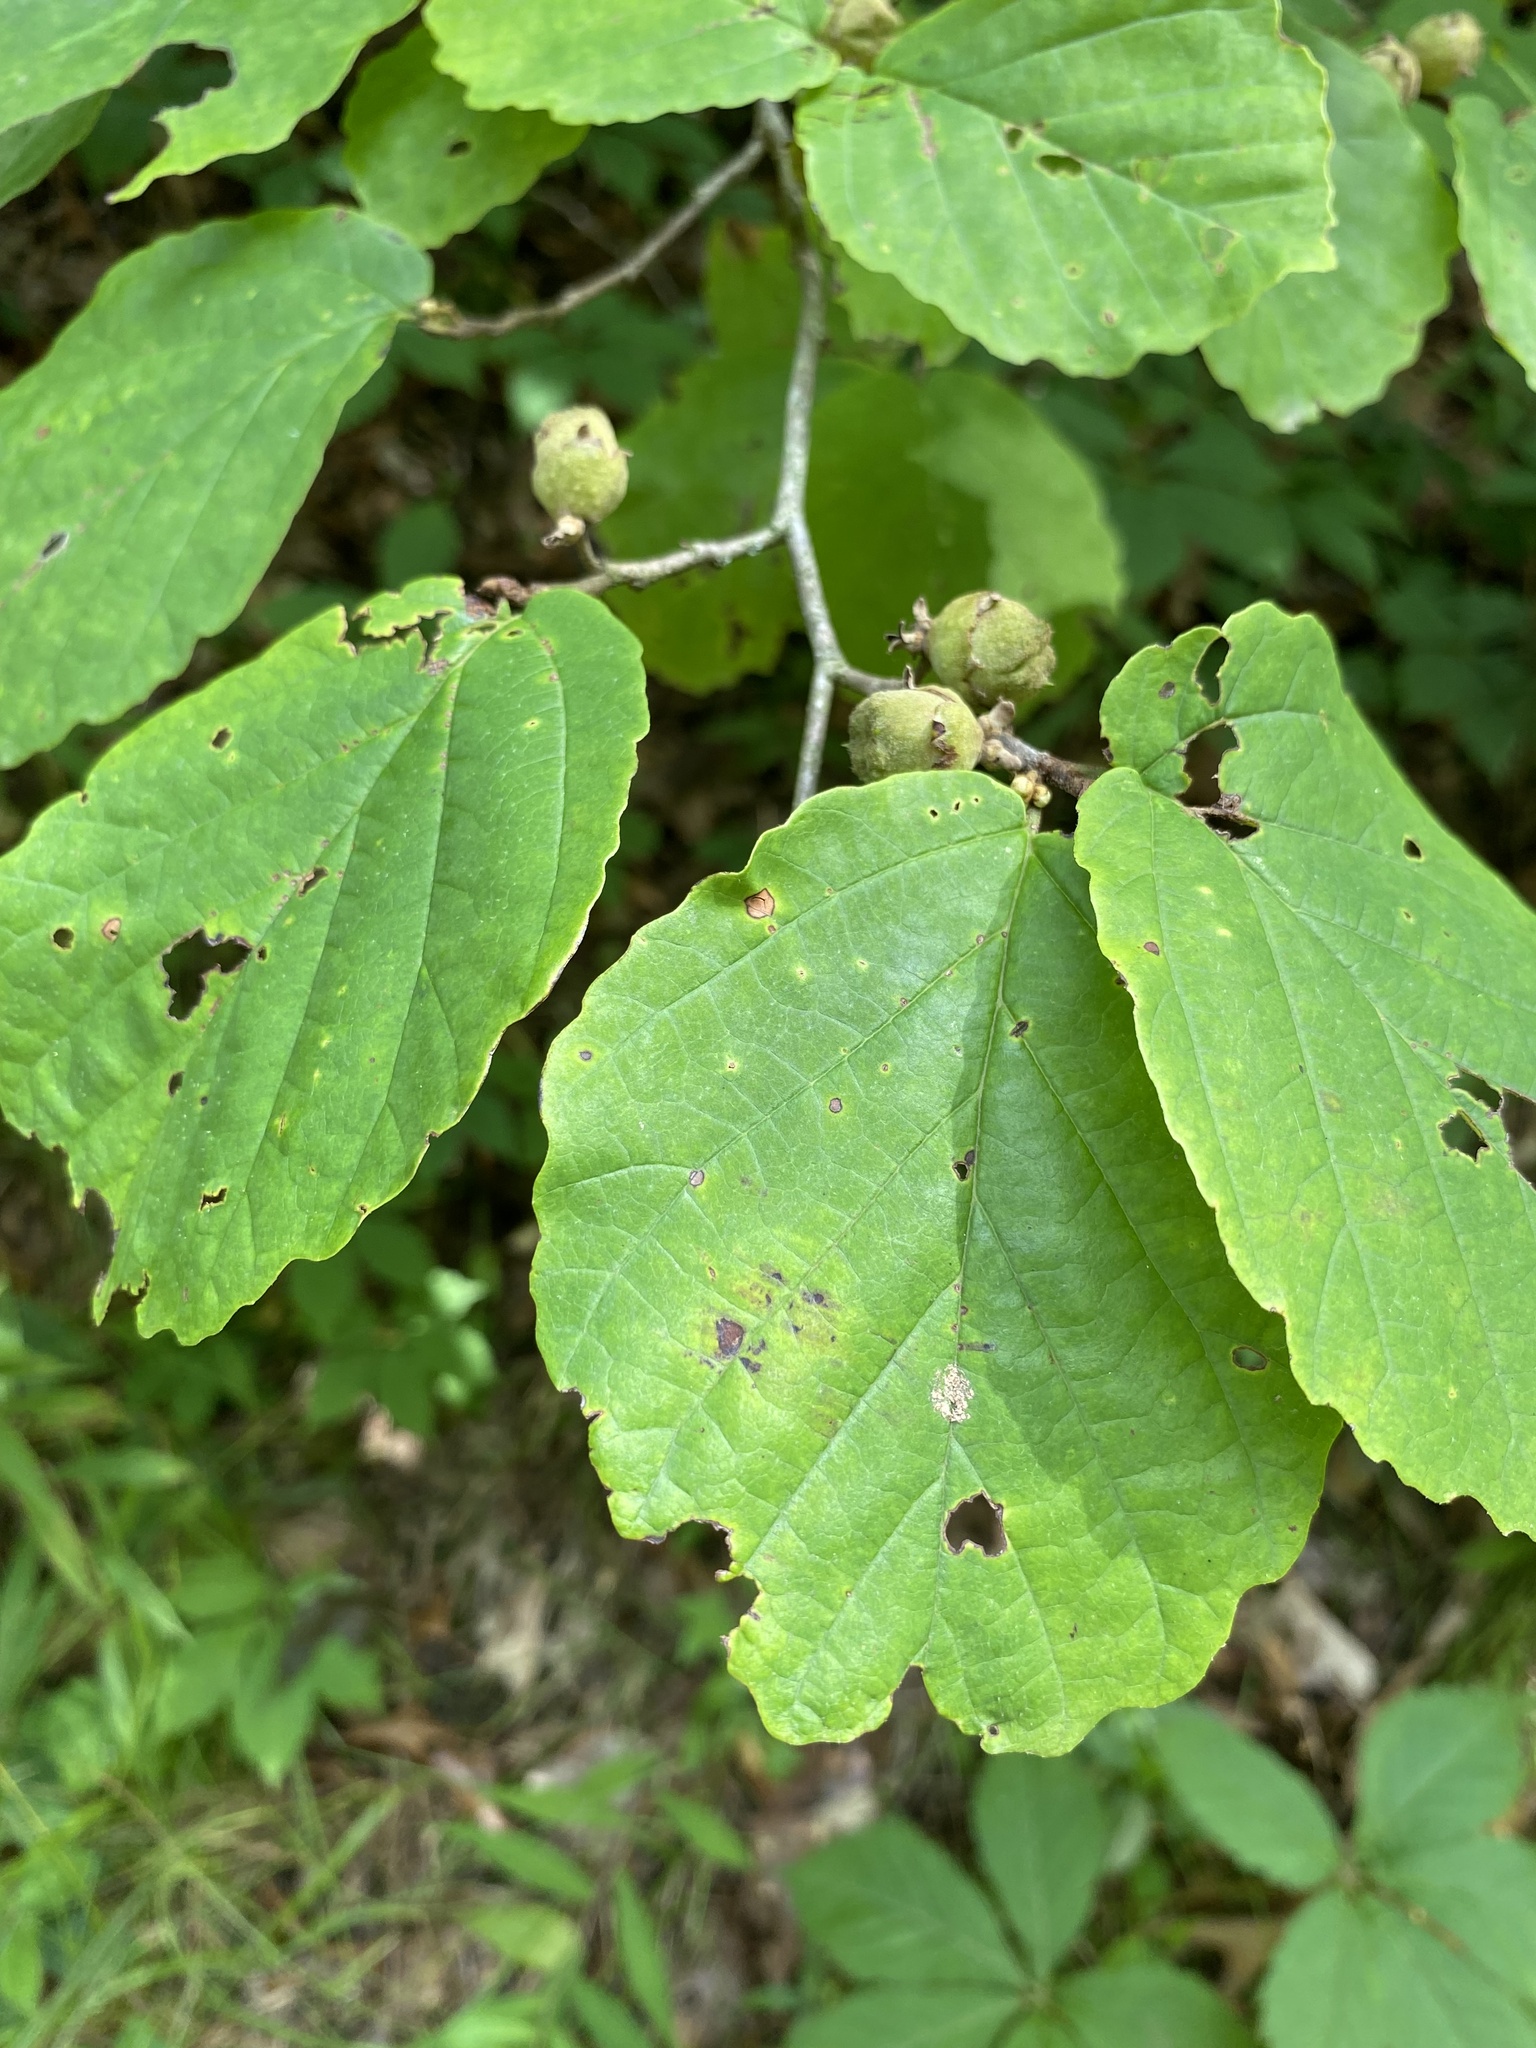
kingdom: Plantae
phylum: Tracheophyta
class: Magnoliopsida
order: Saxifragales
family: Hamamelidaceae
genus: Hamamelis
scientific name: Hamamelis virginiana
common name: Witch-hazel
